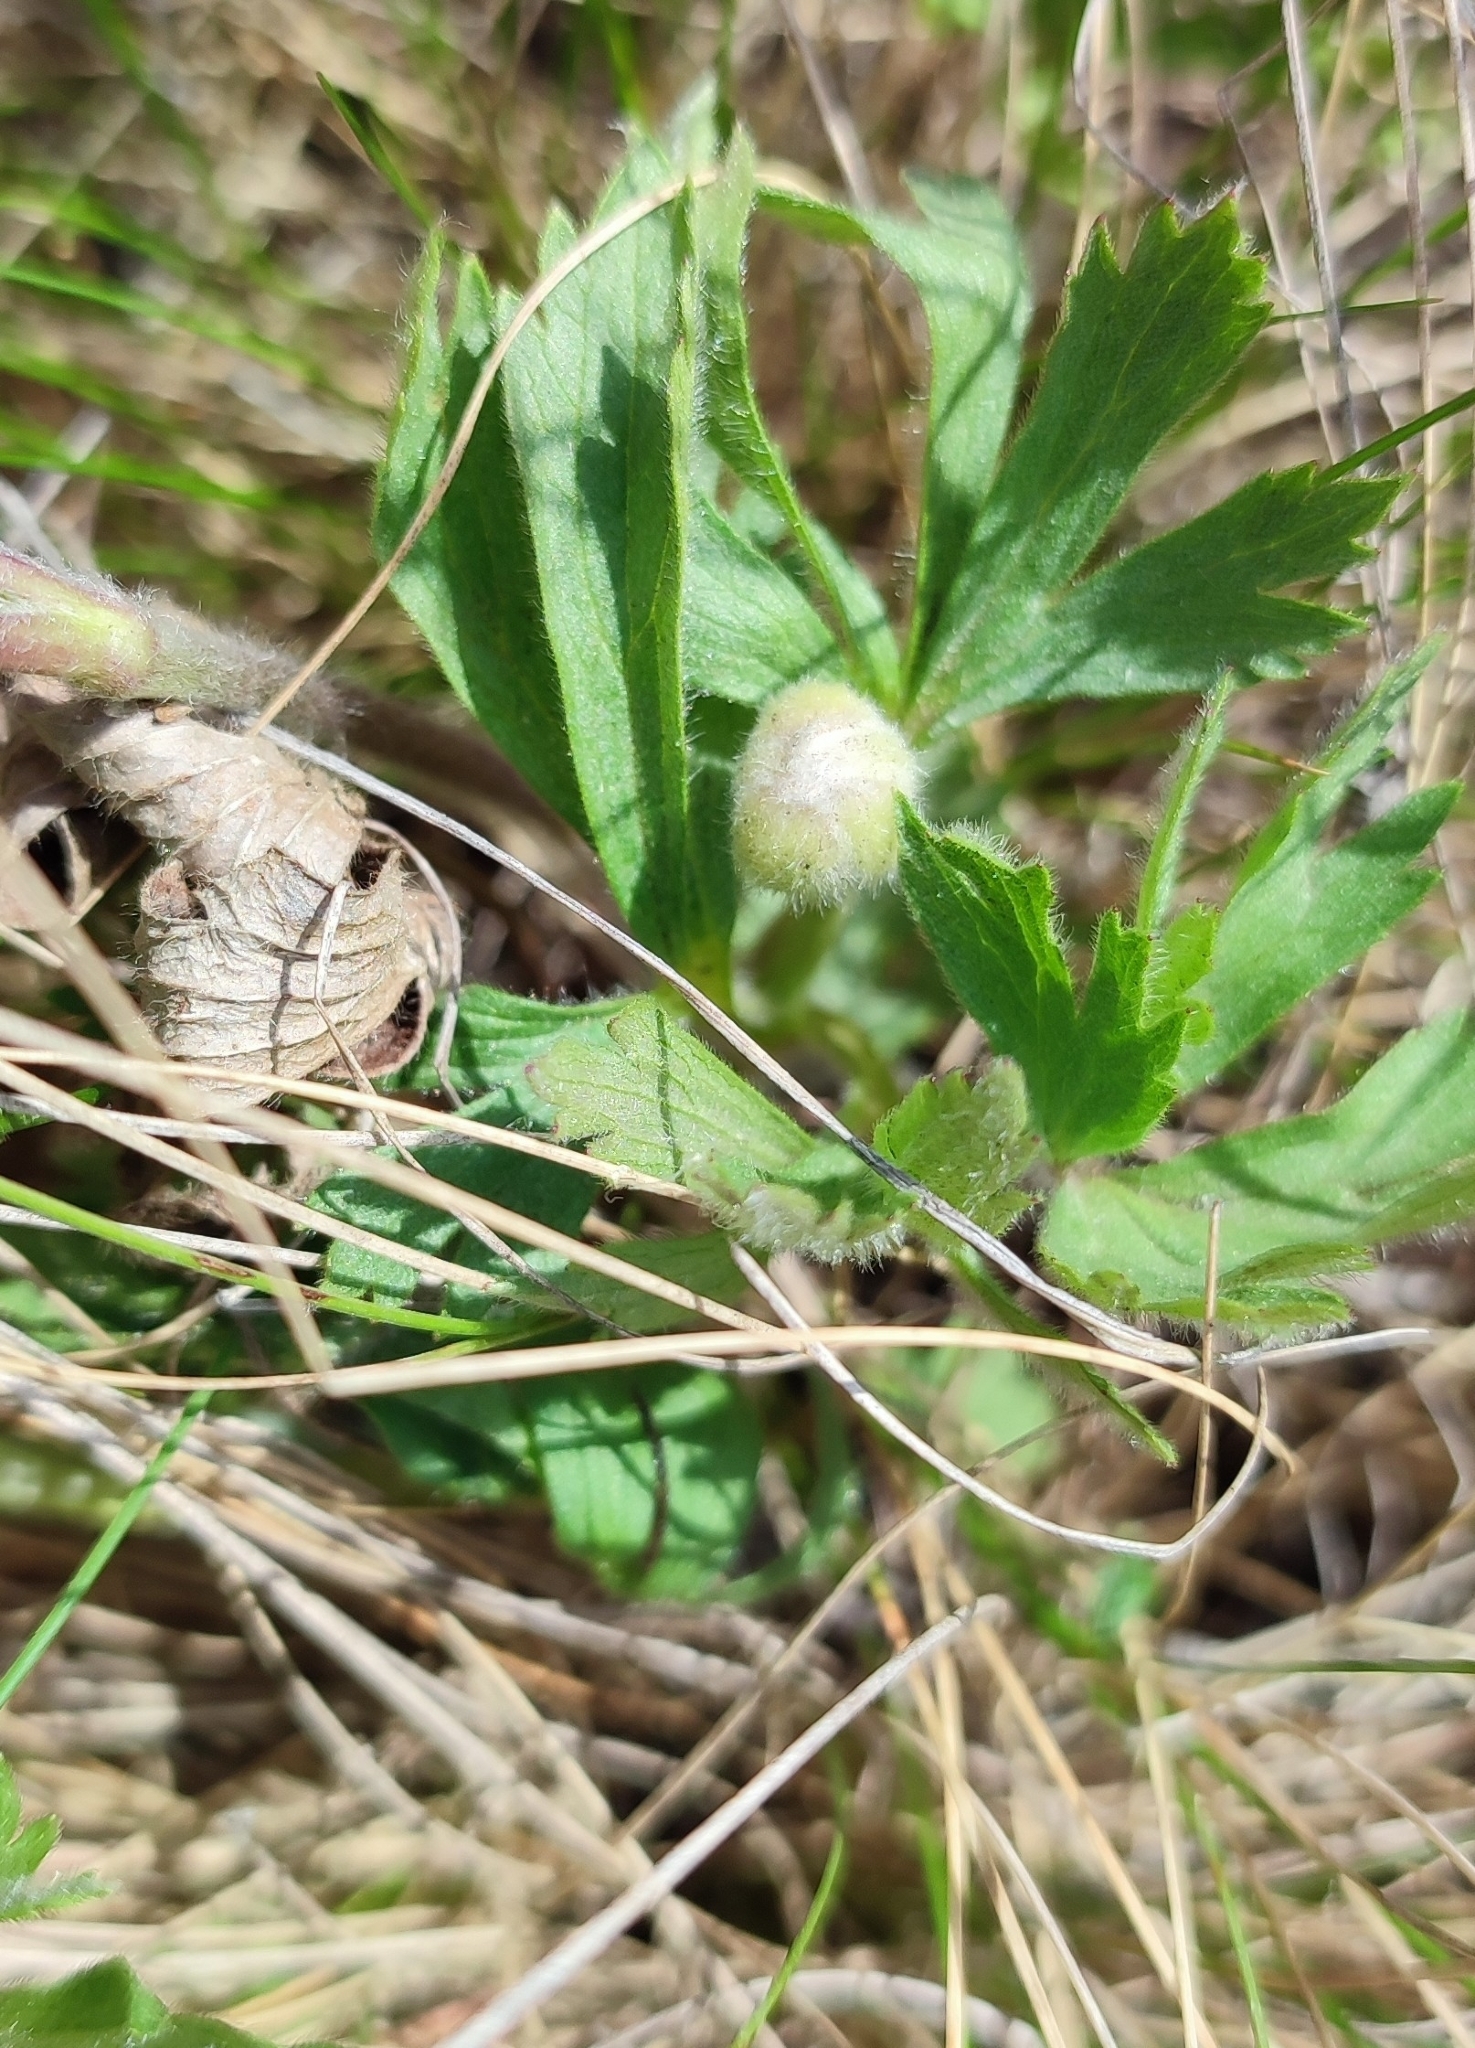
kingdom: Plantae
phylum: Tracheophyta
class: Magnoliopsida
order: Ranunculales
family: Ranunculaceae
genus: Anemone
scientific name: Anemone sylvestris
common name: Snowdrop anemone
